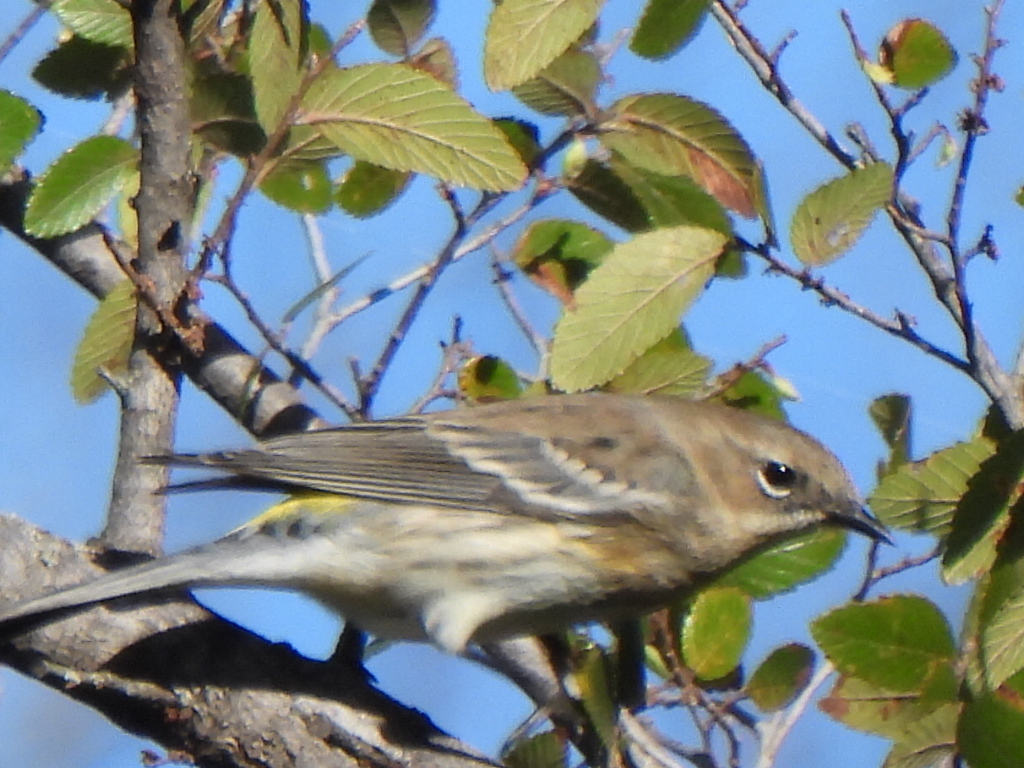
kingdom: Animalia
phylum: Chordata
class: Aves
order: Passeriformes
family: Parulidae
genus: Setophaga
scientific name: Setophaga coronata
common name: Myrtle warbler
